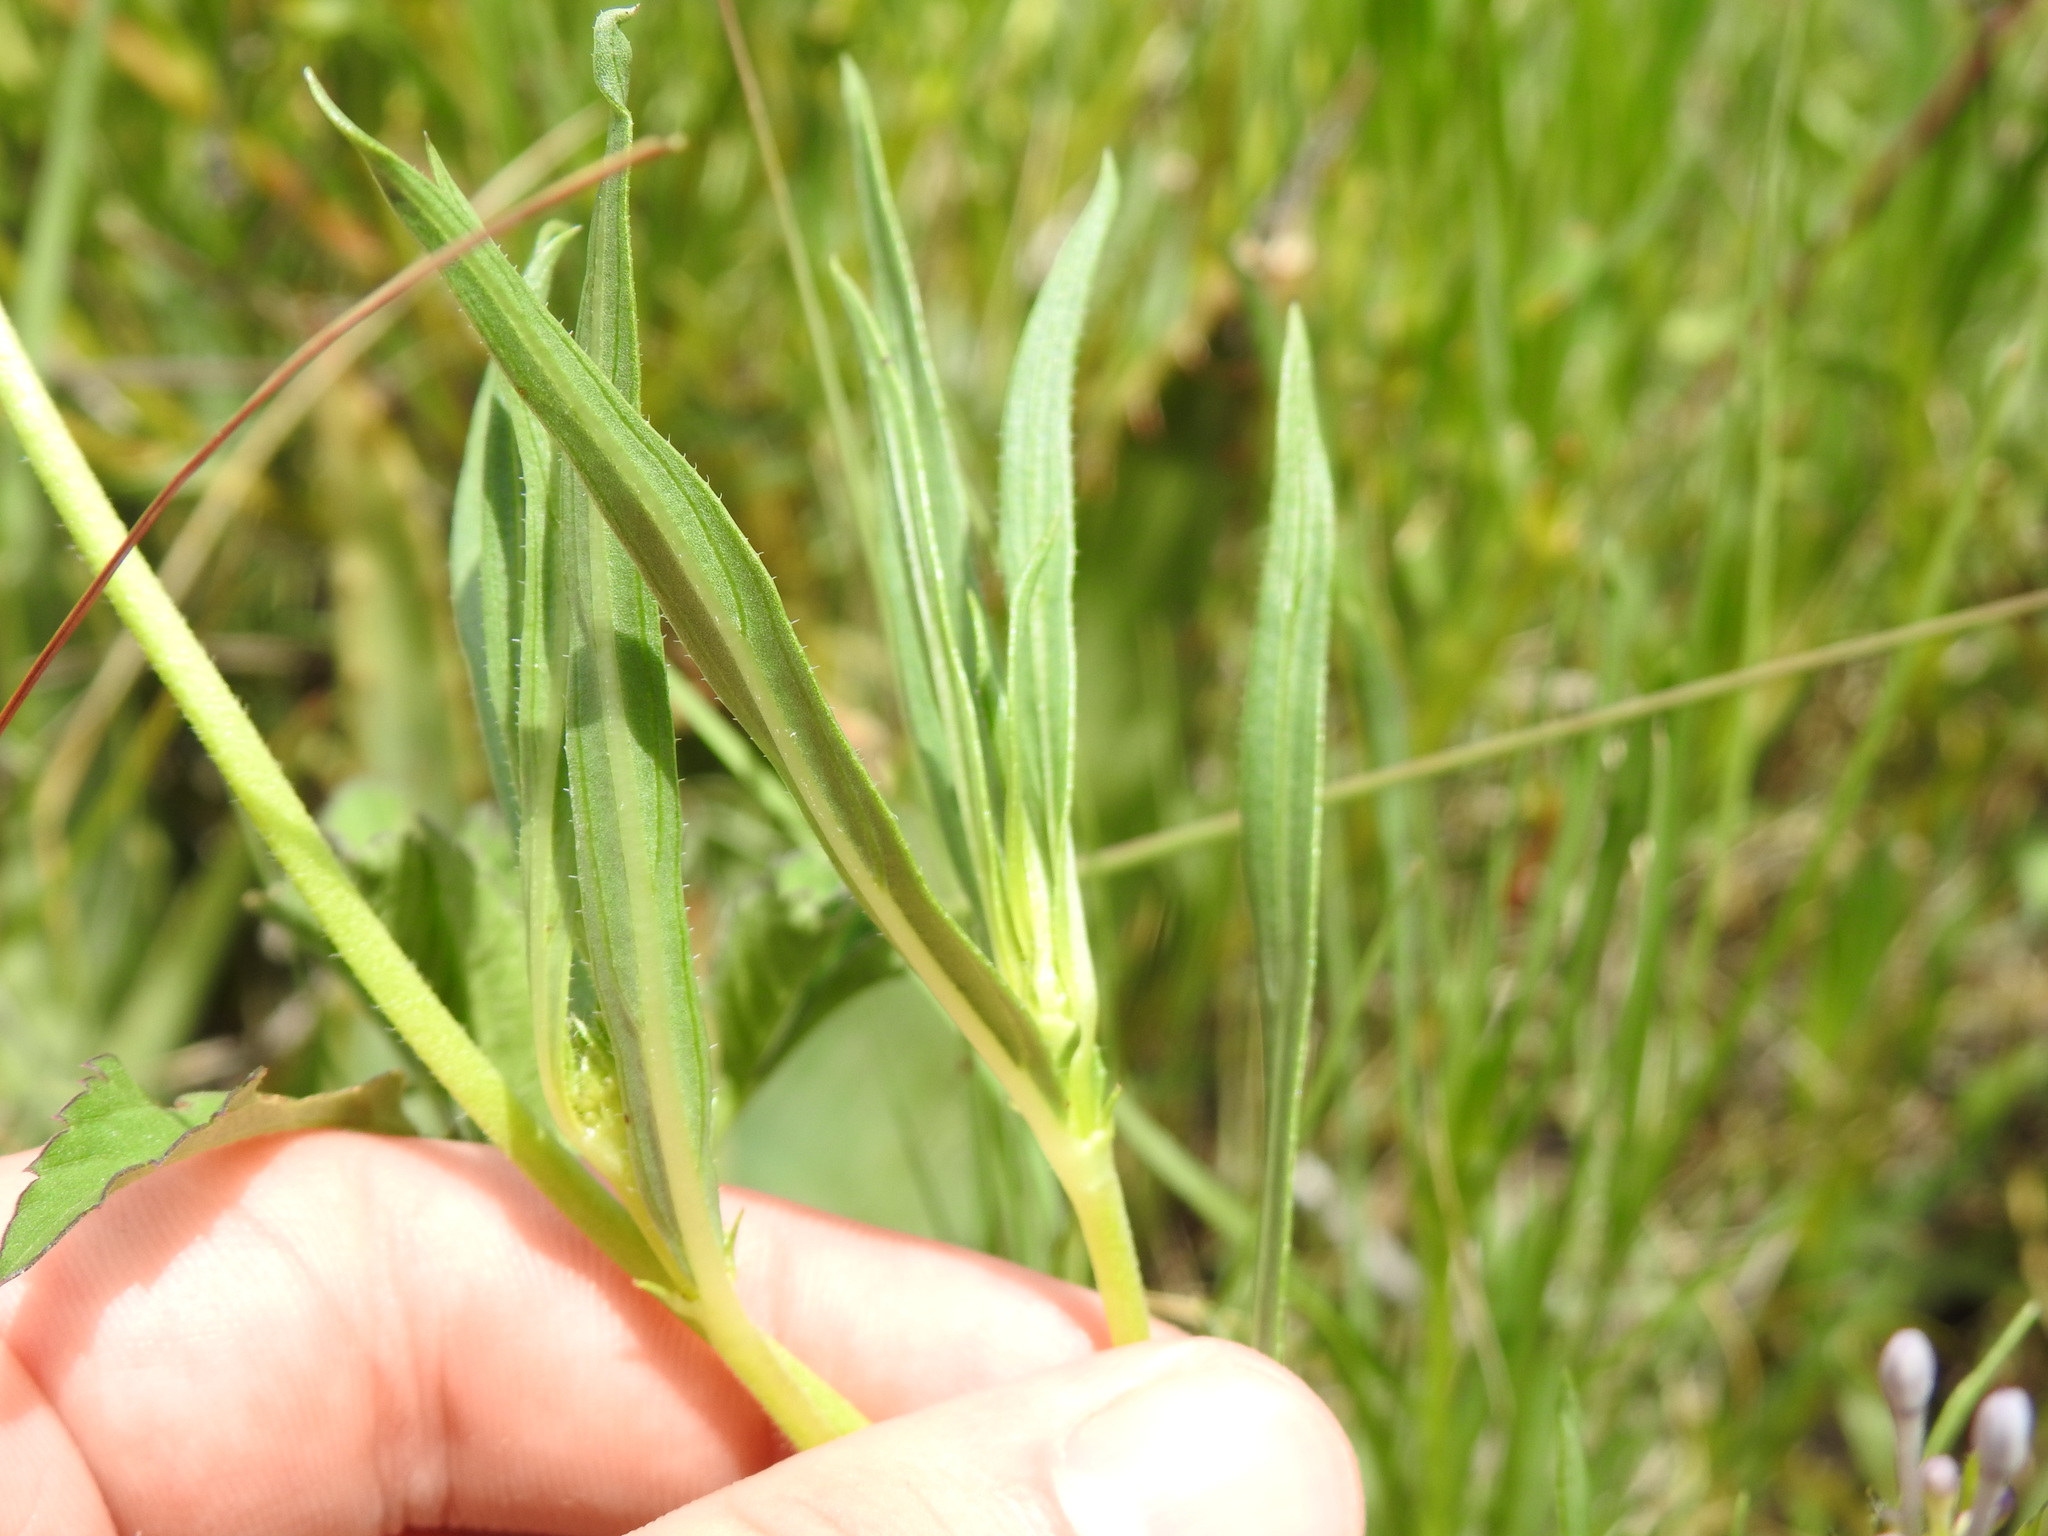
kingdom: Plantae
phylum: Tracheophyta
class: Magnoliopsida
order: Gentianales
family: Rubiaceae
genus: Pentanisia
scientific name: Pentanisia angustifolia
